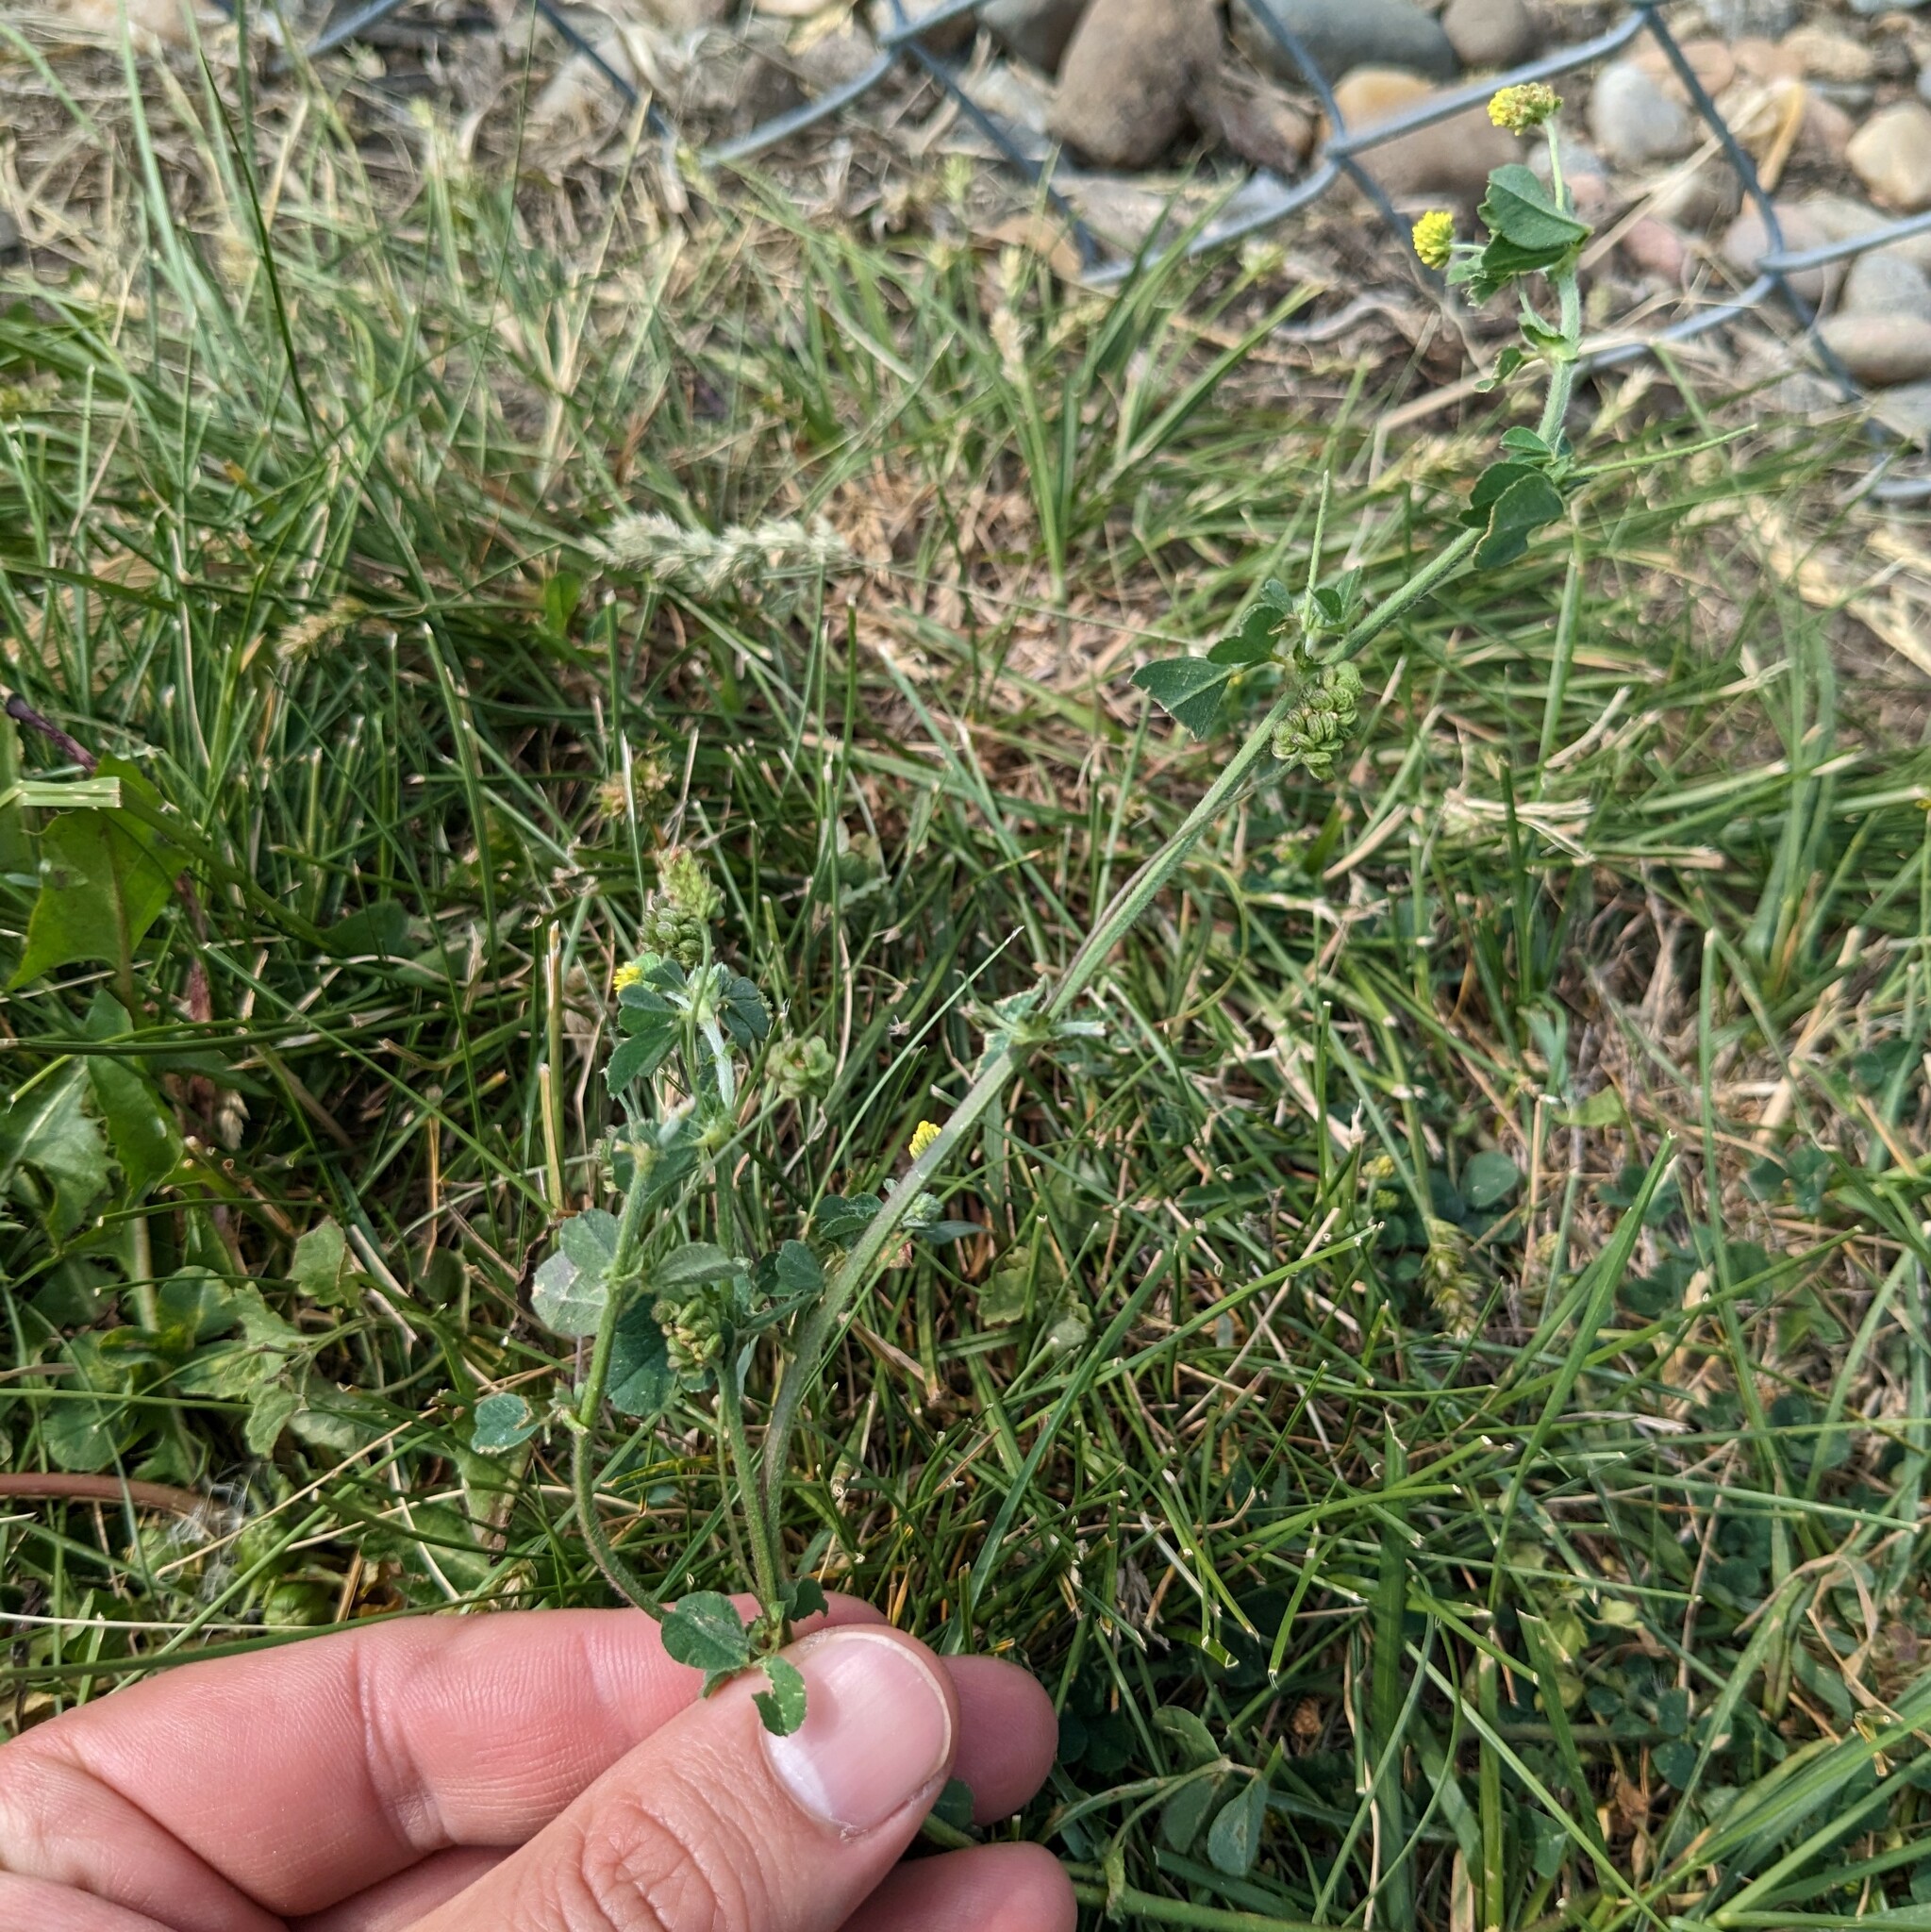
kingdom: Plantae
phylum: Tracheophyta
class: Magnoliopsida
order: Fabales
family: Fabaceae
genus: Medicago
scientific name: Medicago lupulina
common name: Black medick
